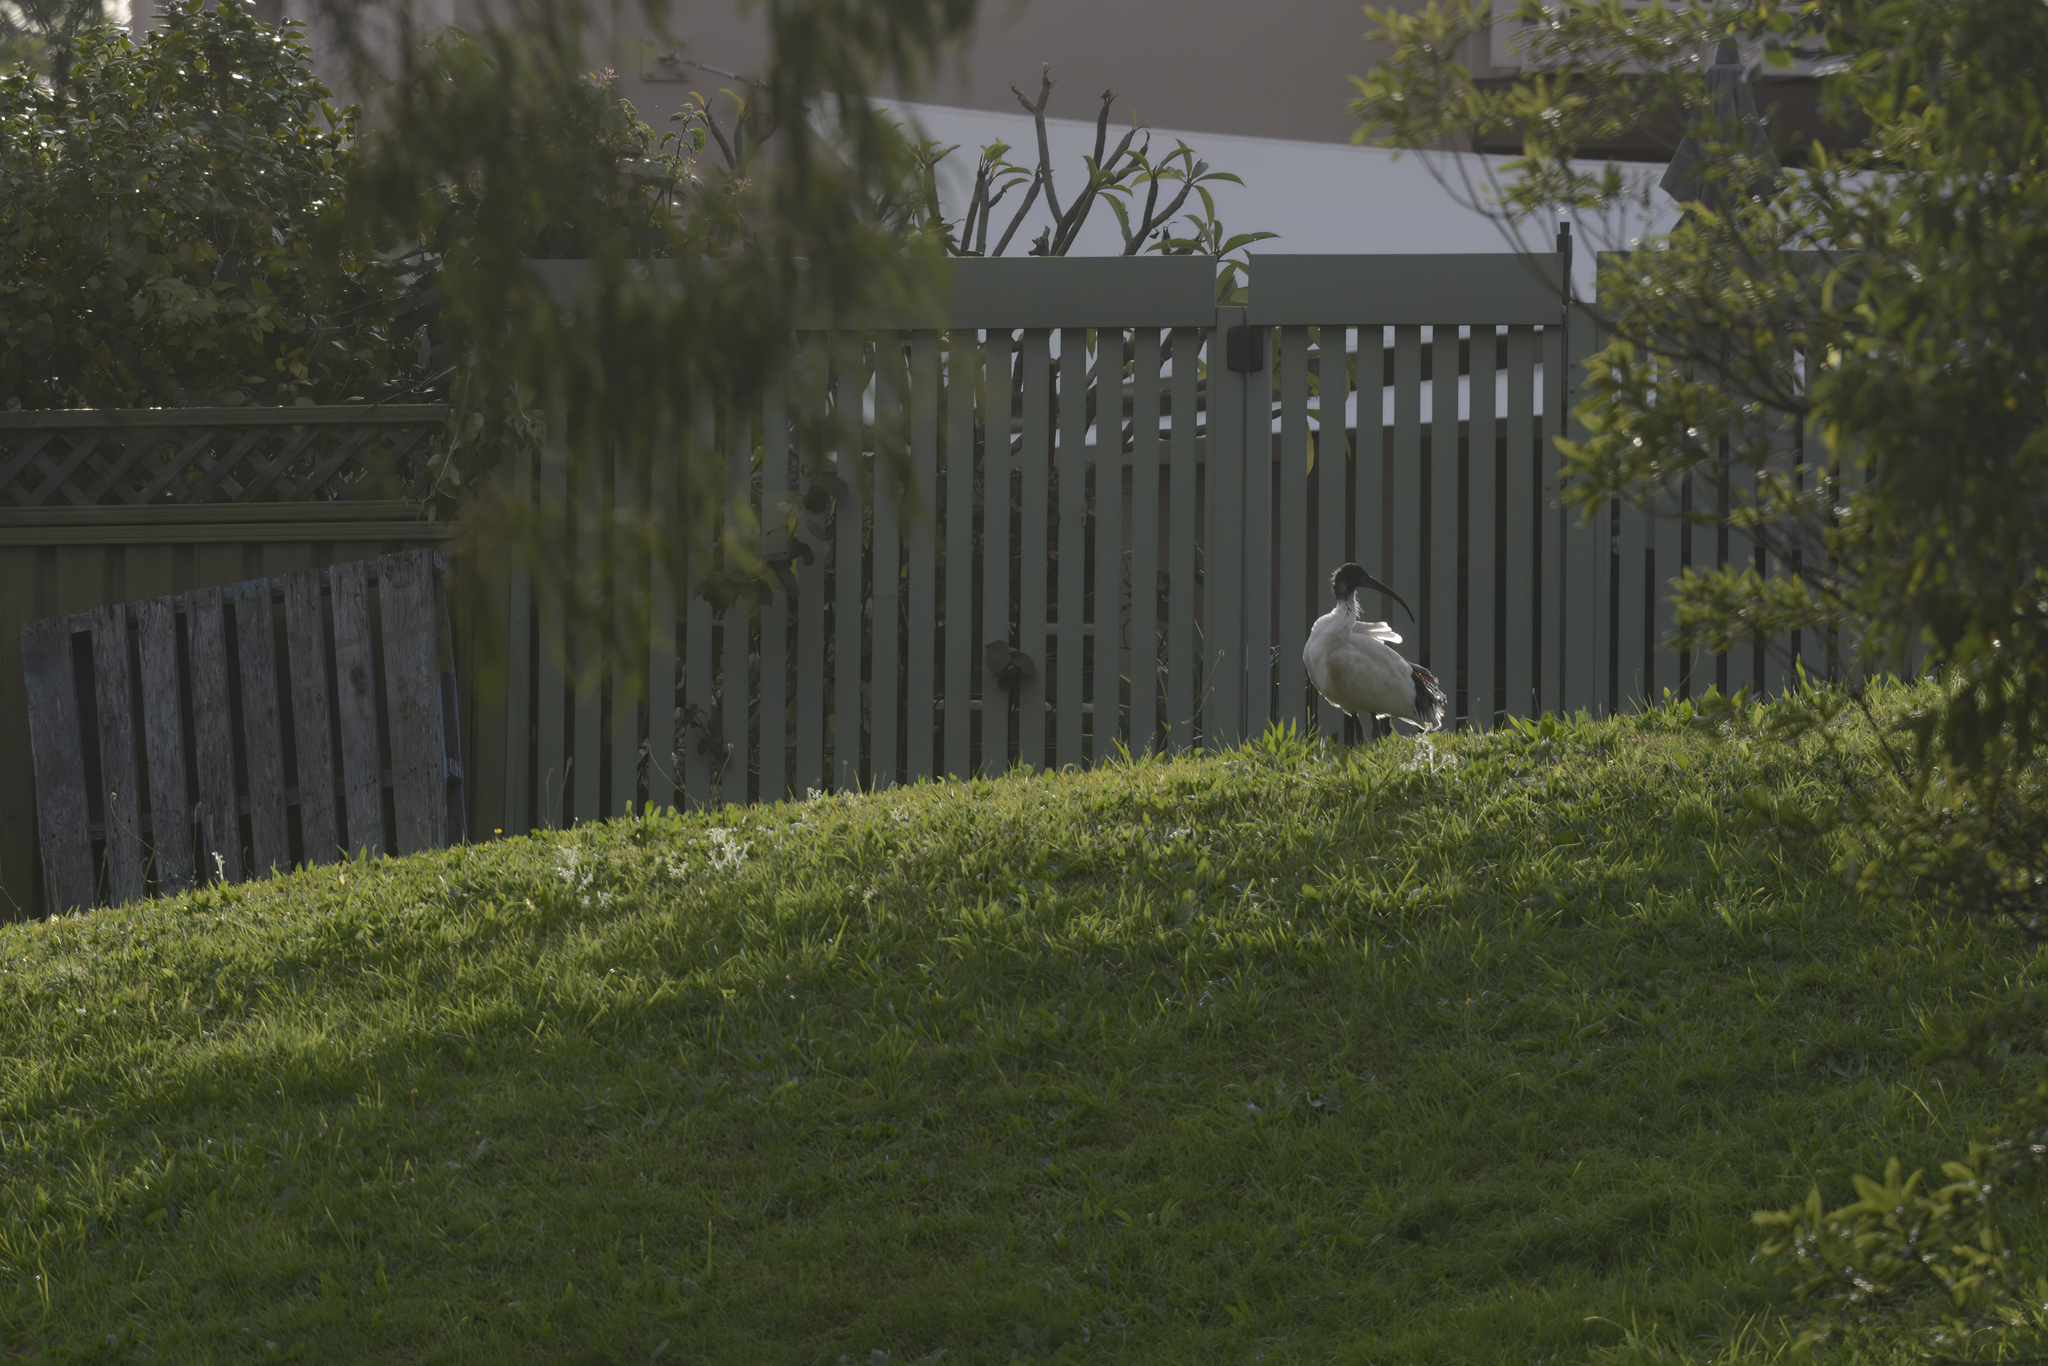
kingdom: Animalia
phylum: Chordata
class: Aves
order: Pelecaniformes
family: Threskiornithidae
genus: Threskiornis
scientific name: Threskiornis molucca
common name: Australian white ibis
